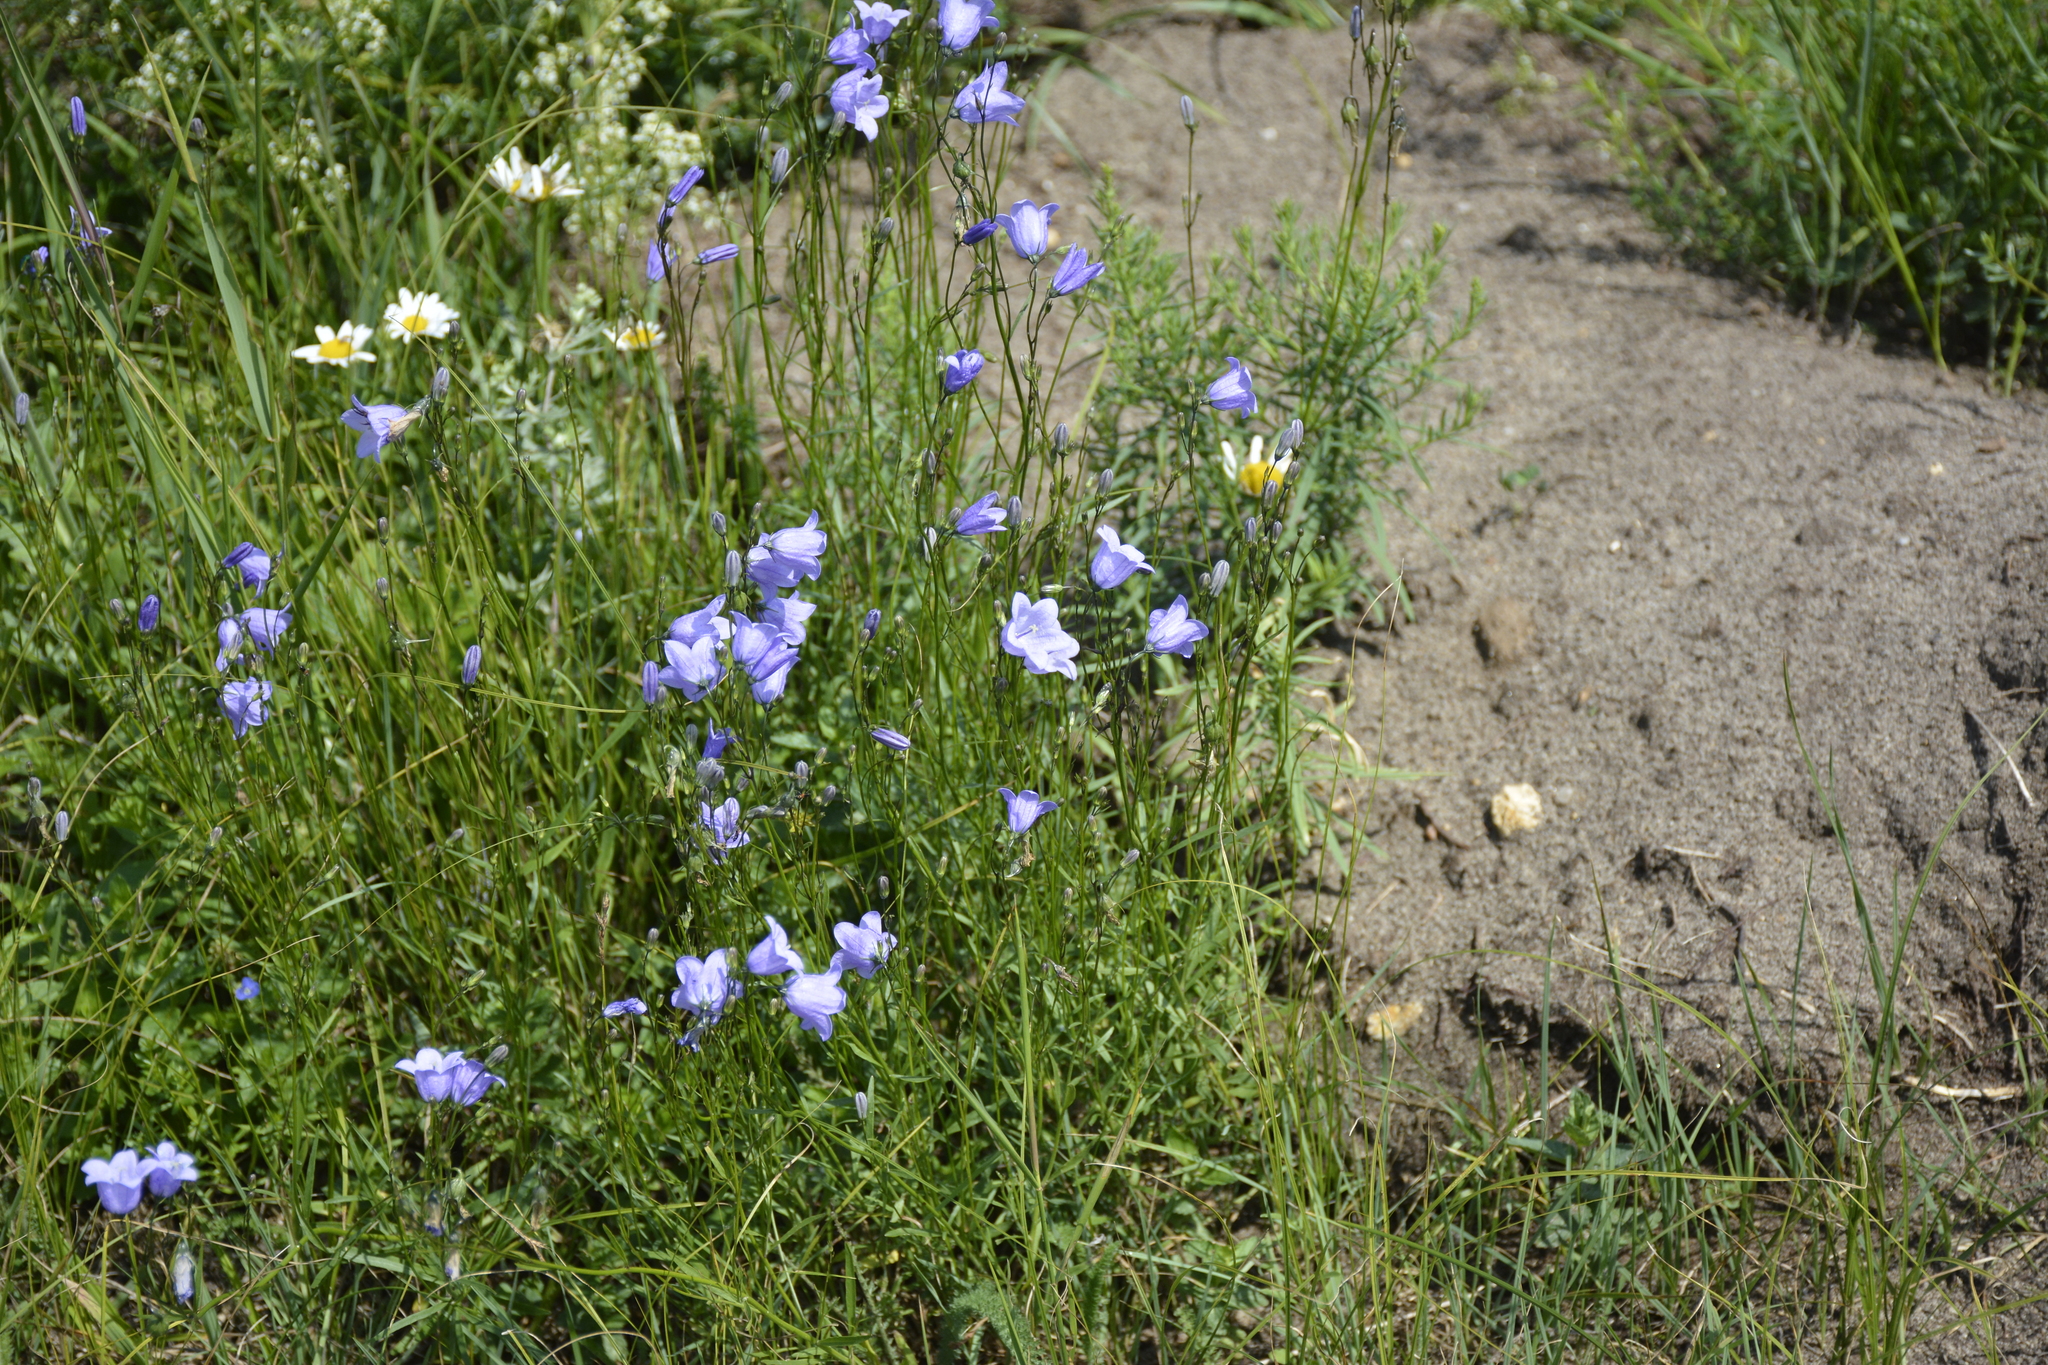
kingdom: Plantae
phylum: Tracheophyta
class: Magnoliopsida
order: Asterales
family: Campanulaceae
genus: Campanula
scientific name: Campanula rotundifolia
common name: Harebell
